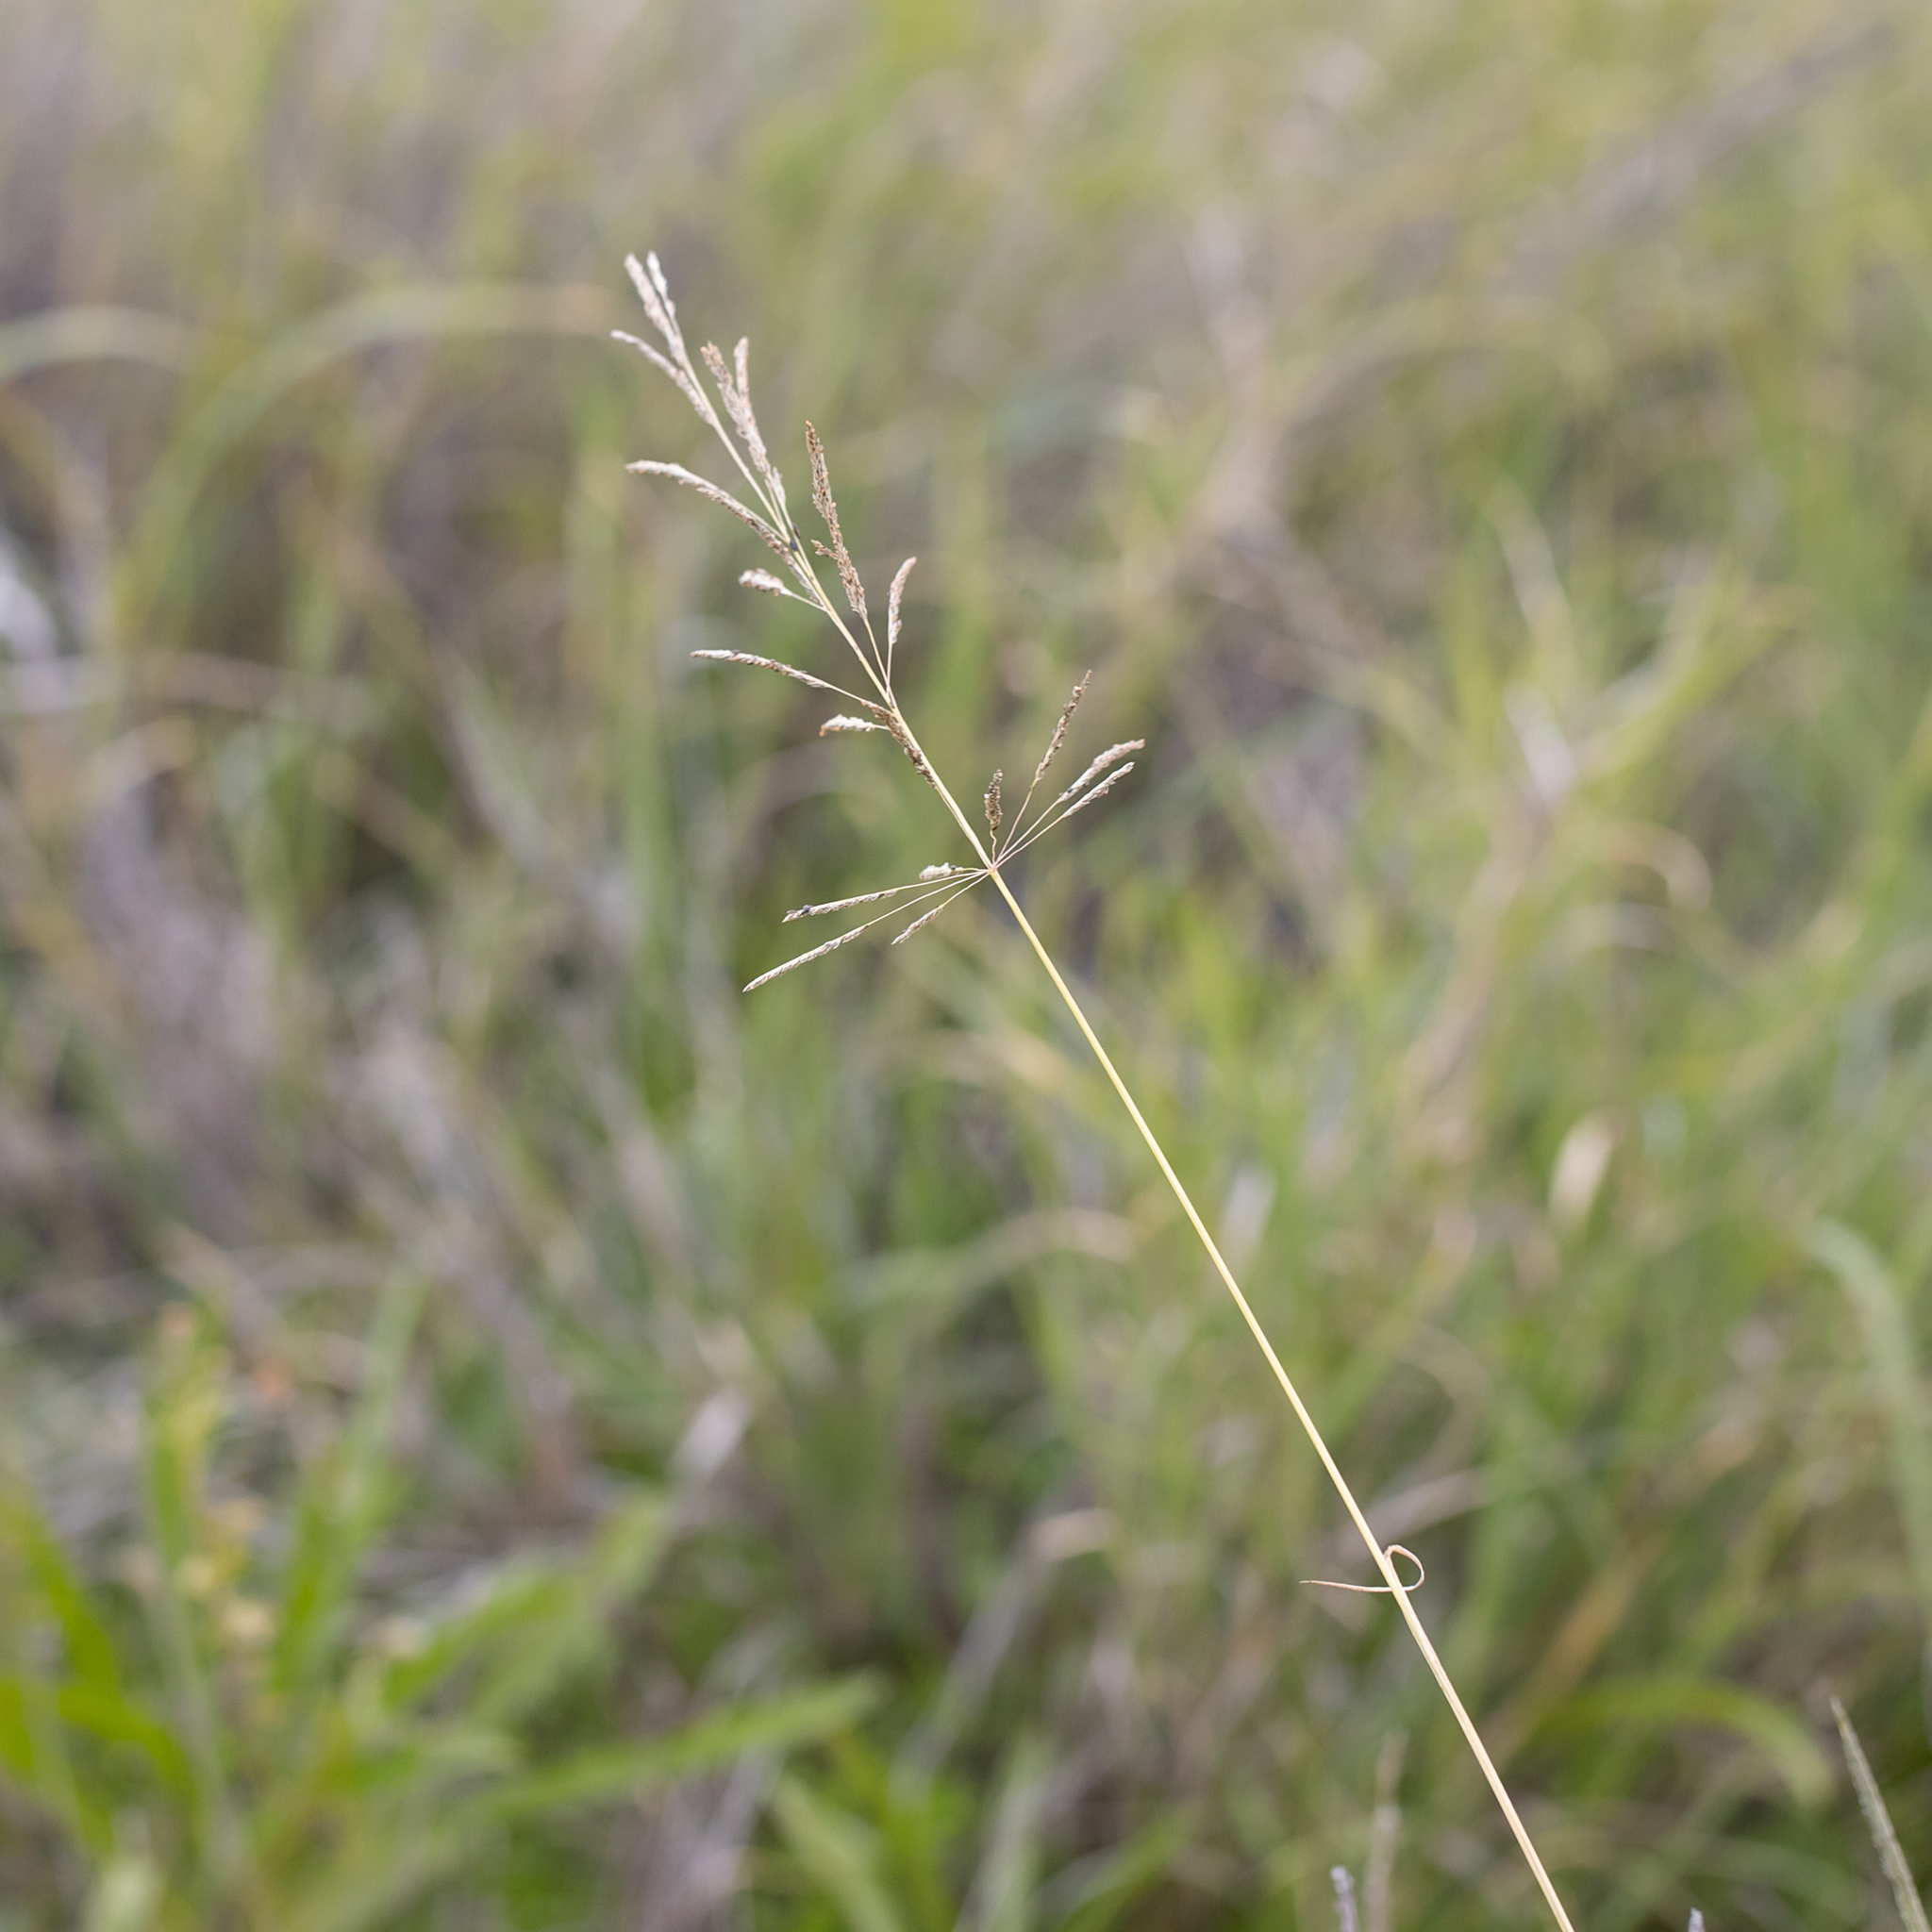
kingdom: Plantae
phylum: Tracheophyta
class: Liliopsida
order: Poales
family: Poaceae
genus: Sporobolus
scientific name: Sporobolus actinocladus
